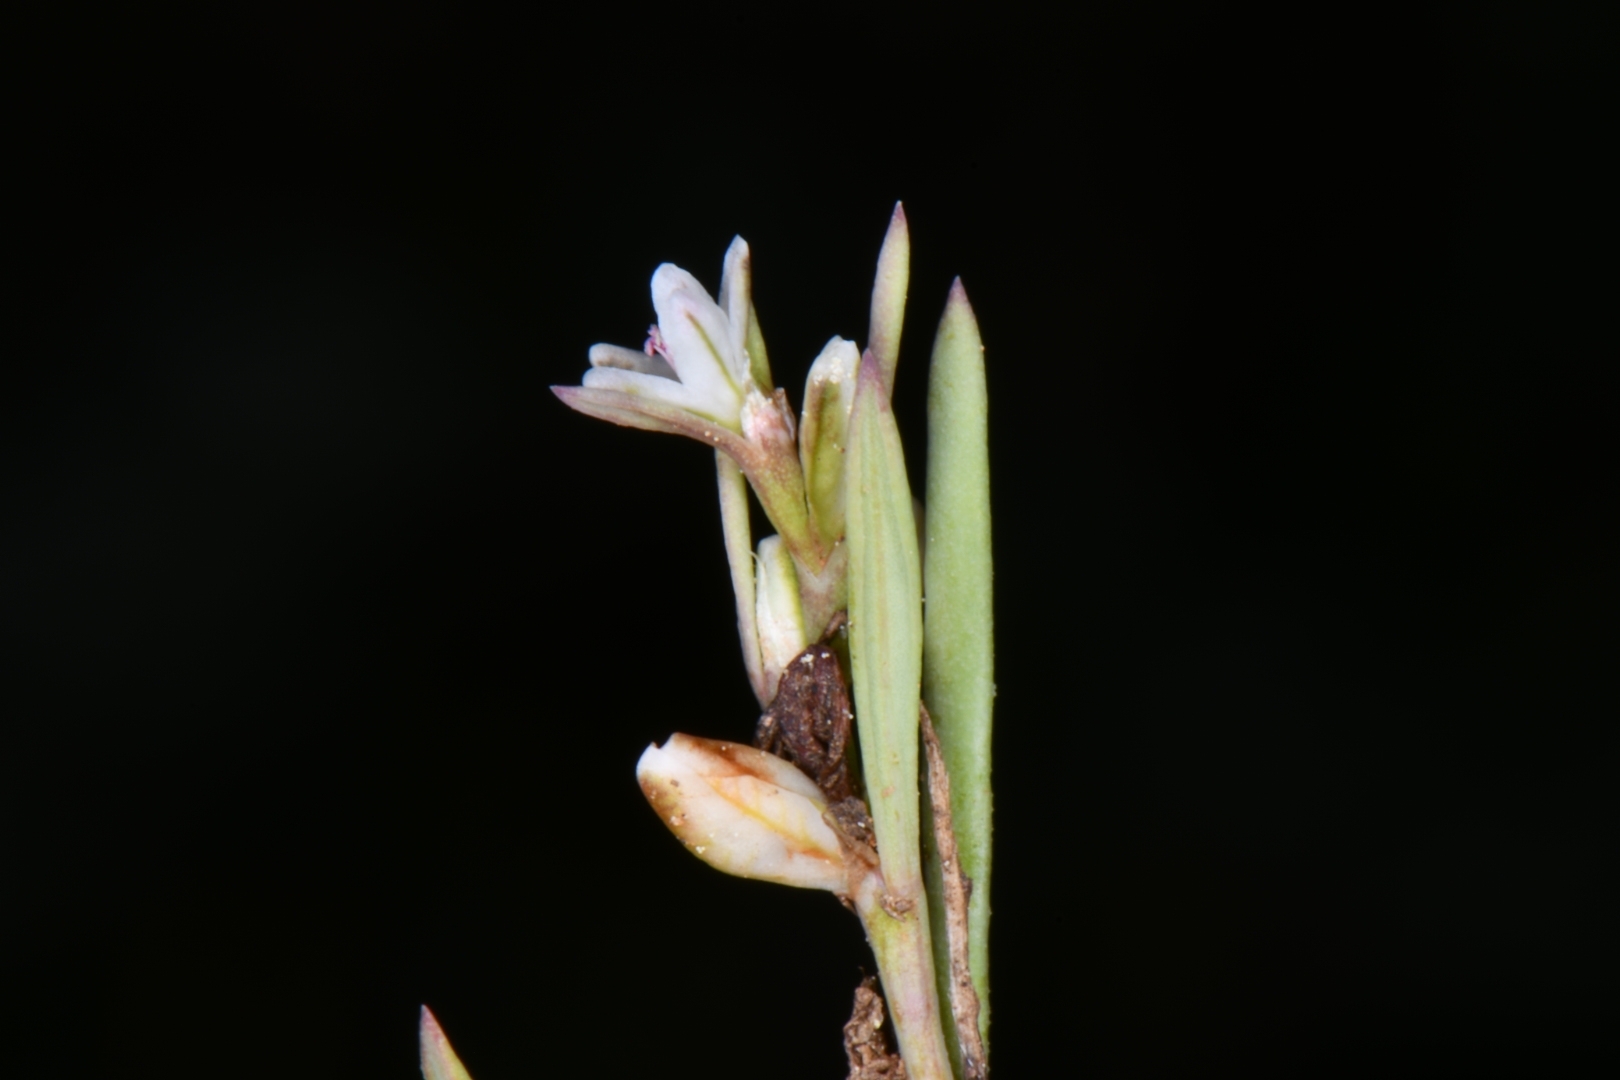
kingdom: Plantae
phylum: Tracheophyta
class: Magnoliopsida
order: Caryophyllales
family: Polygonaceae
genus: Polygonum
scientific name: Polygonum sawatchense
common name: Sawatch knotweed
